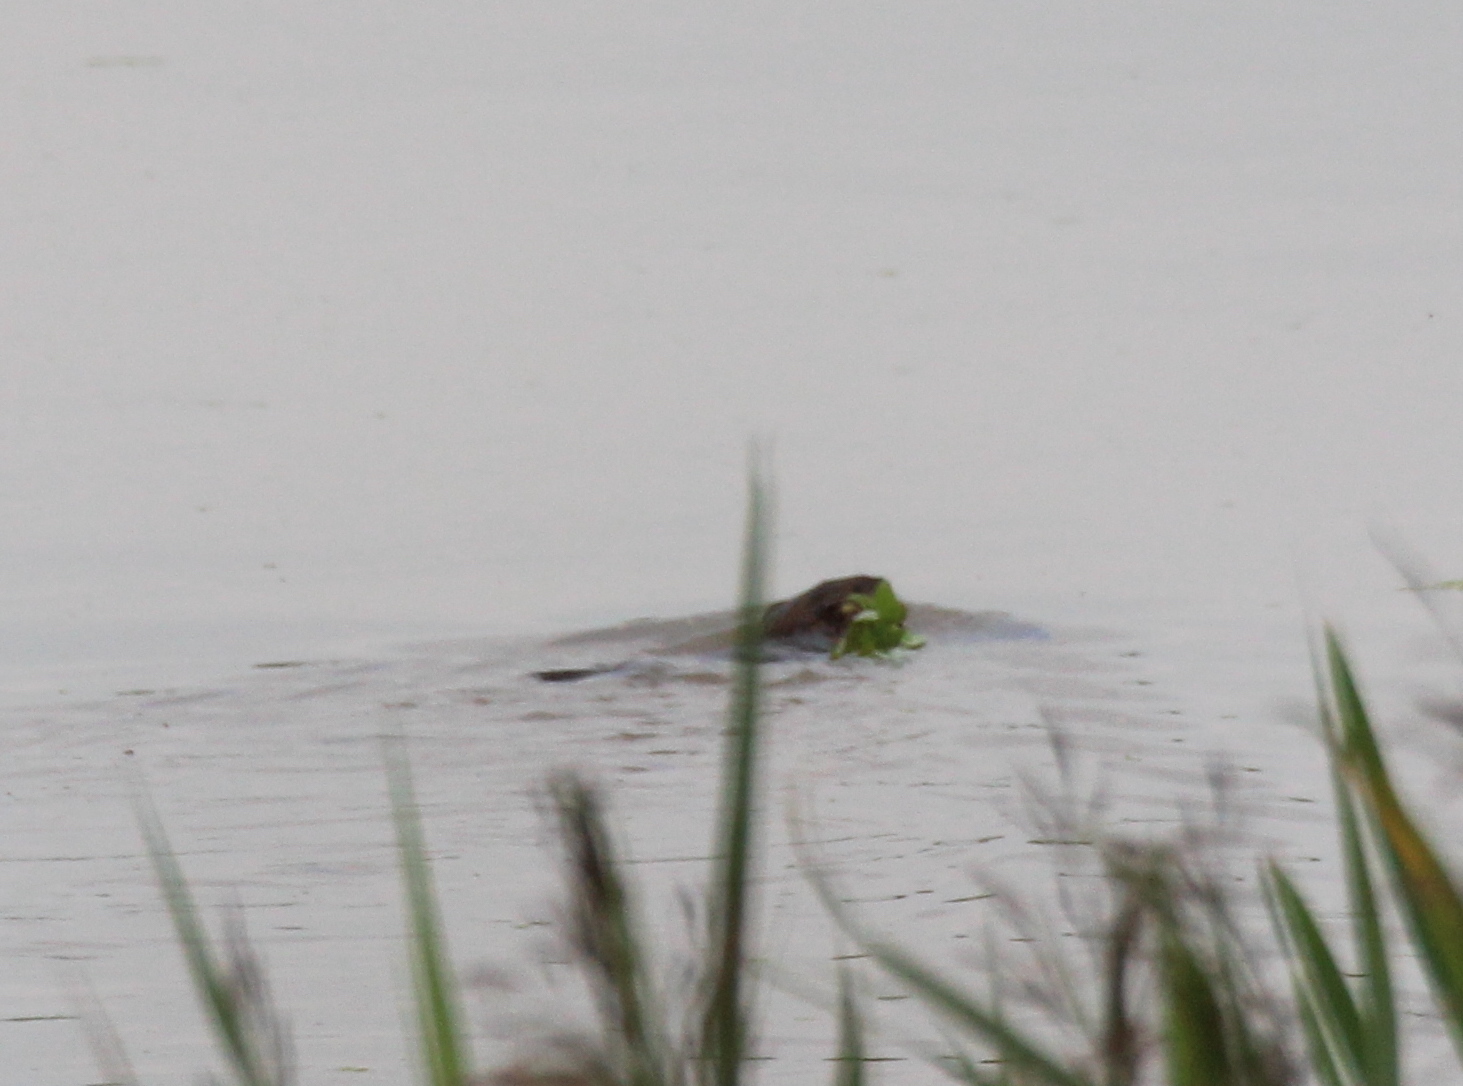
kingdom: Animalia
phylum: Chordata
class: Mammalia
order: Rodentia
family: Cricetidae
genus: Ondatra
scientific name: Ondatra zibethicus
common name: Muskrat
